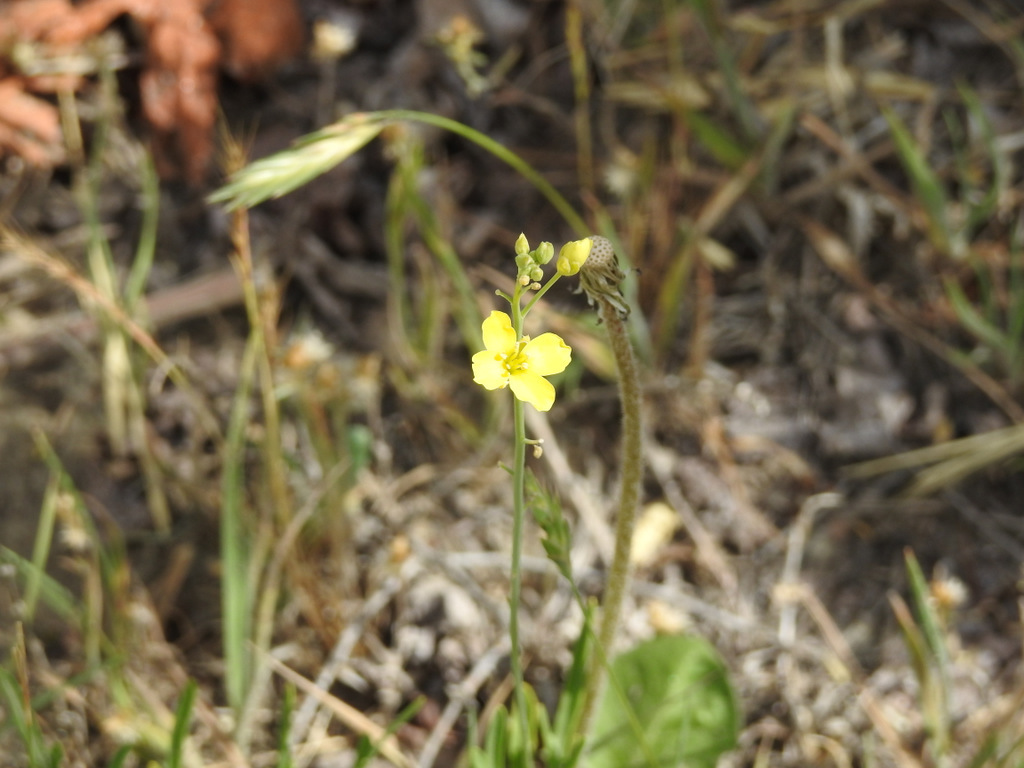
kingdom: Plantae
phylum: Tracheophyta
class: Magnoliopsida
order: Brassicales
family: Brassicaceae
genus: Diplotaxis
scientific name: Diplotaxis tenuifolia
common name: Perennial wall-rocket
